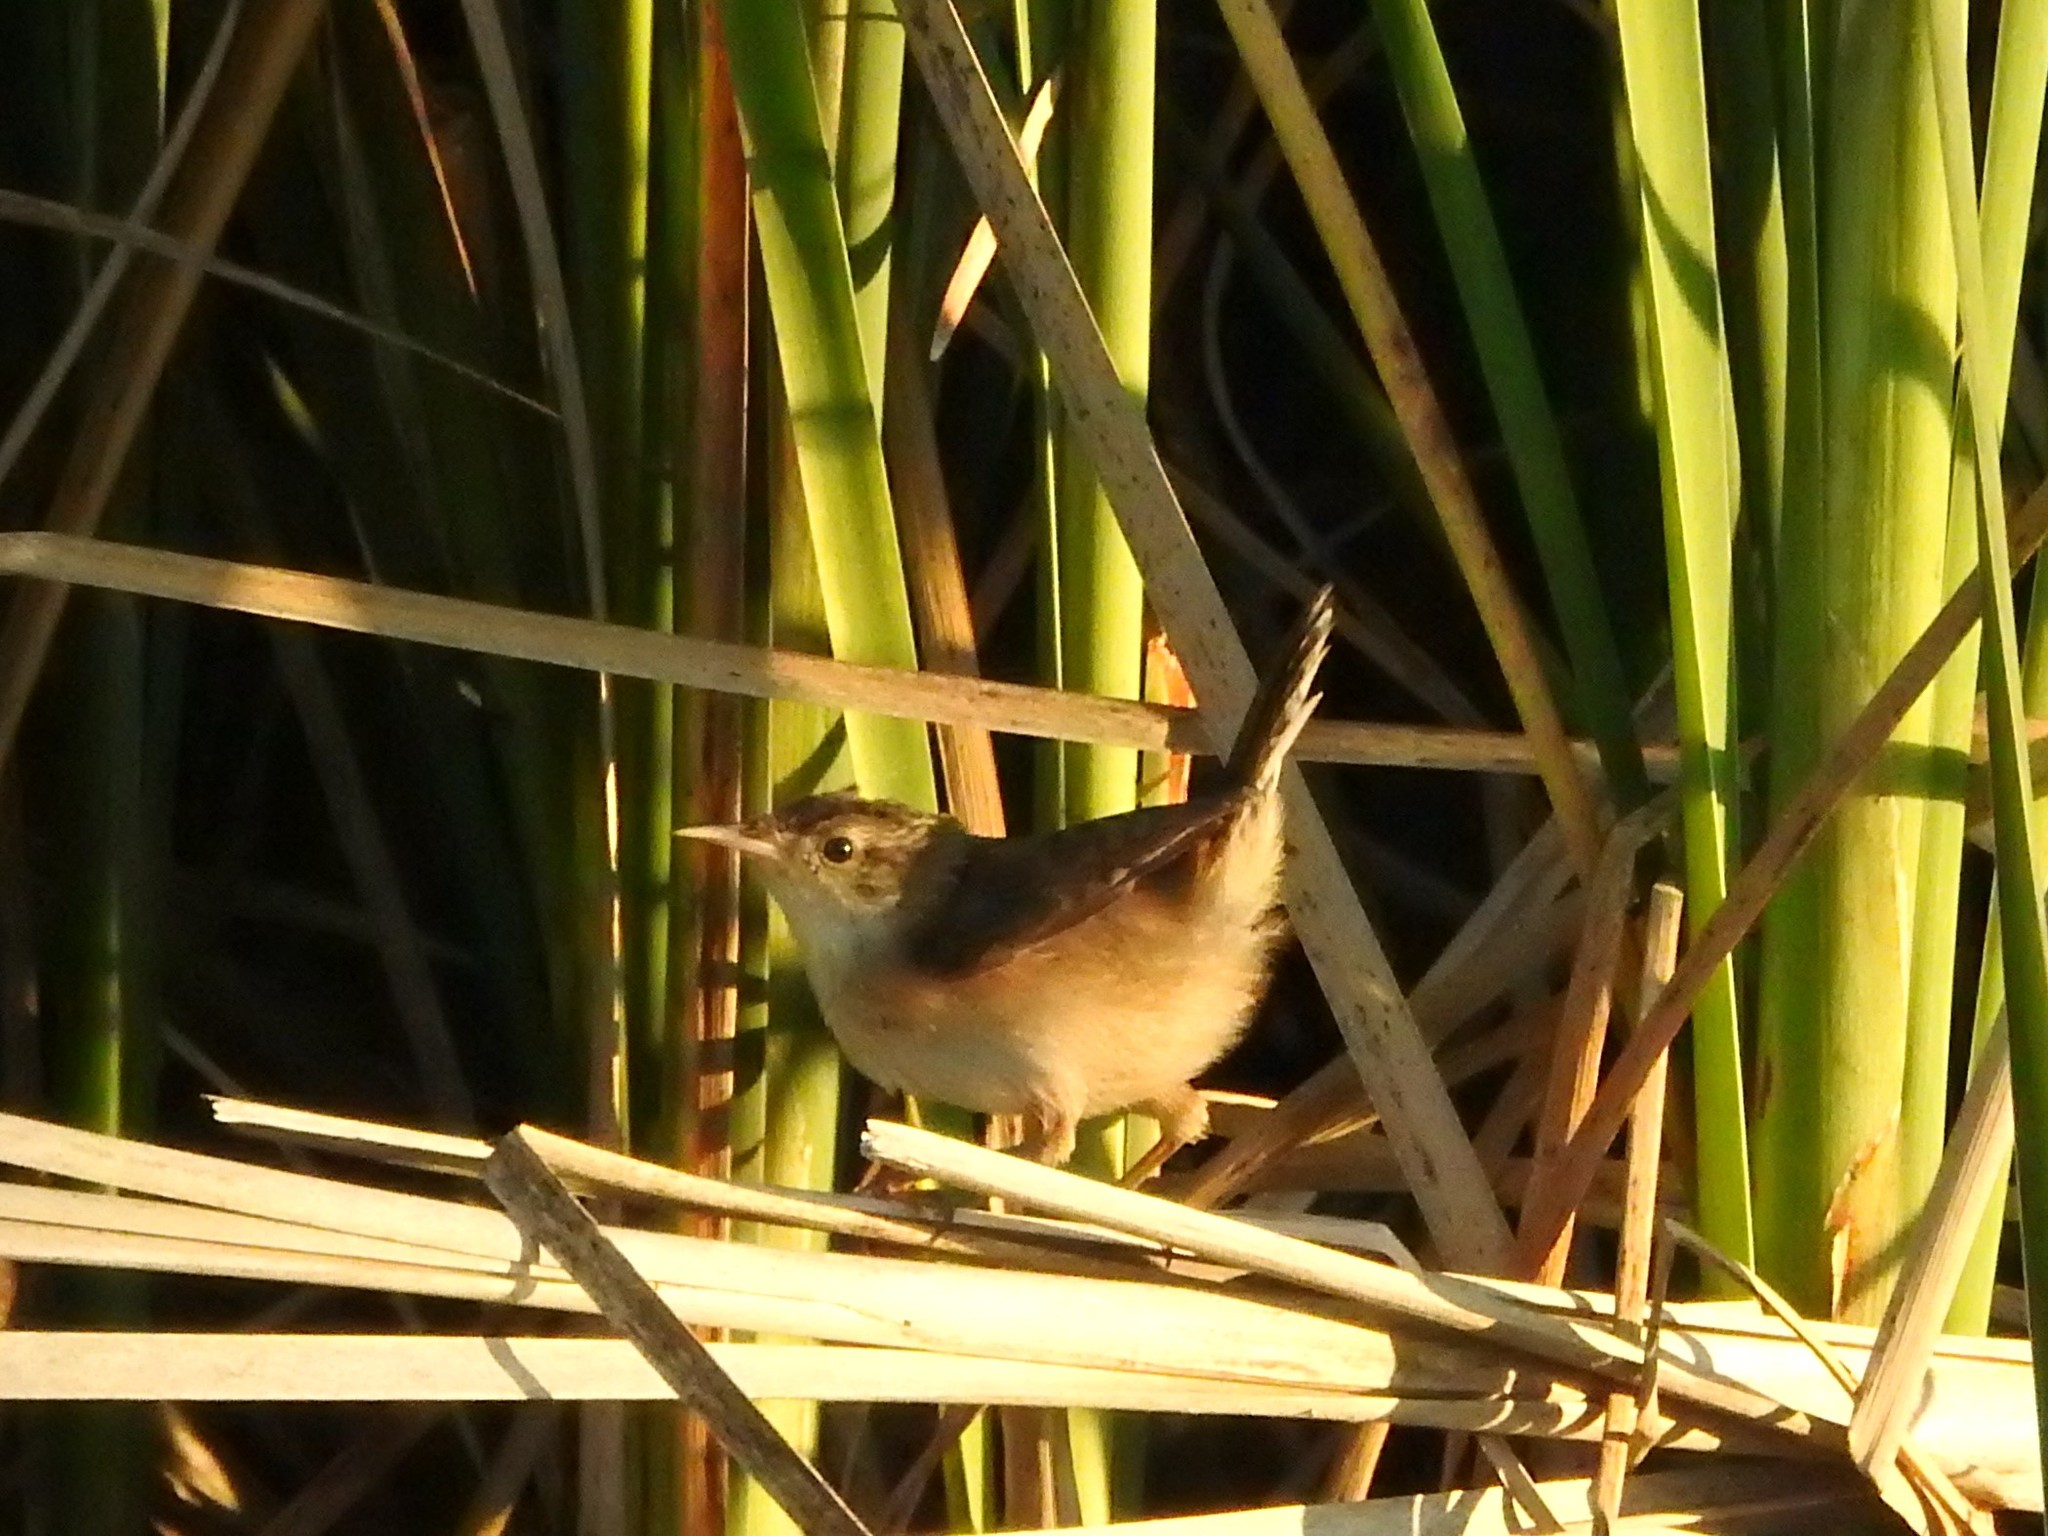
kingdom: Animalia
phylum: Chordata
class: Aves
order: Passeriformes
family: Troglodytidae
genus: Cistothorus
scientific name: Cistothorus palustris
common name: Marsh wren
